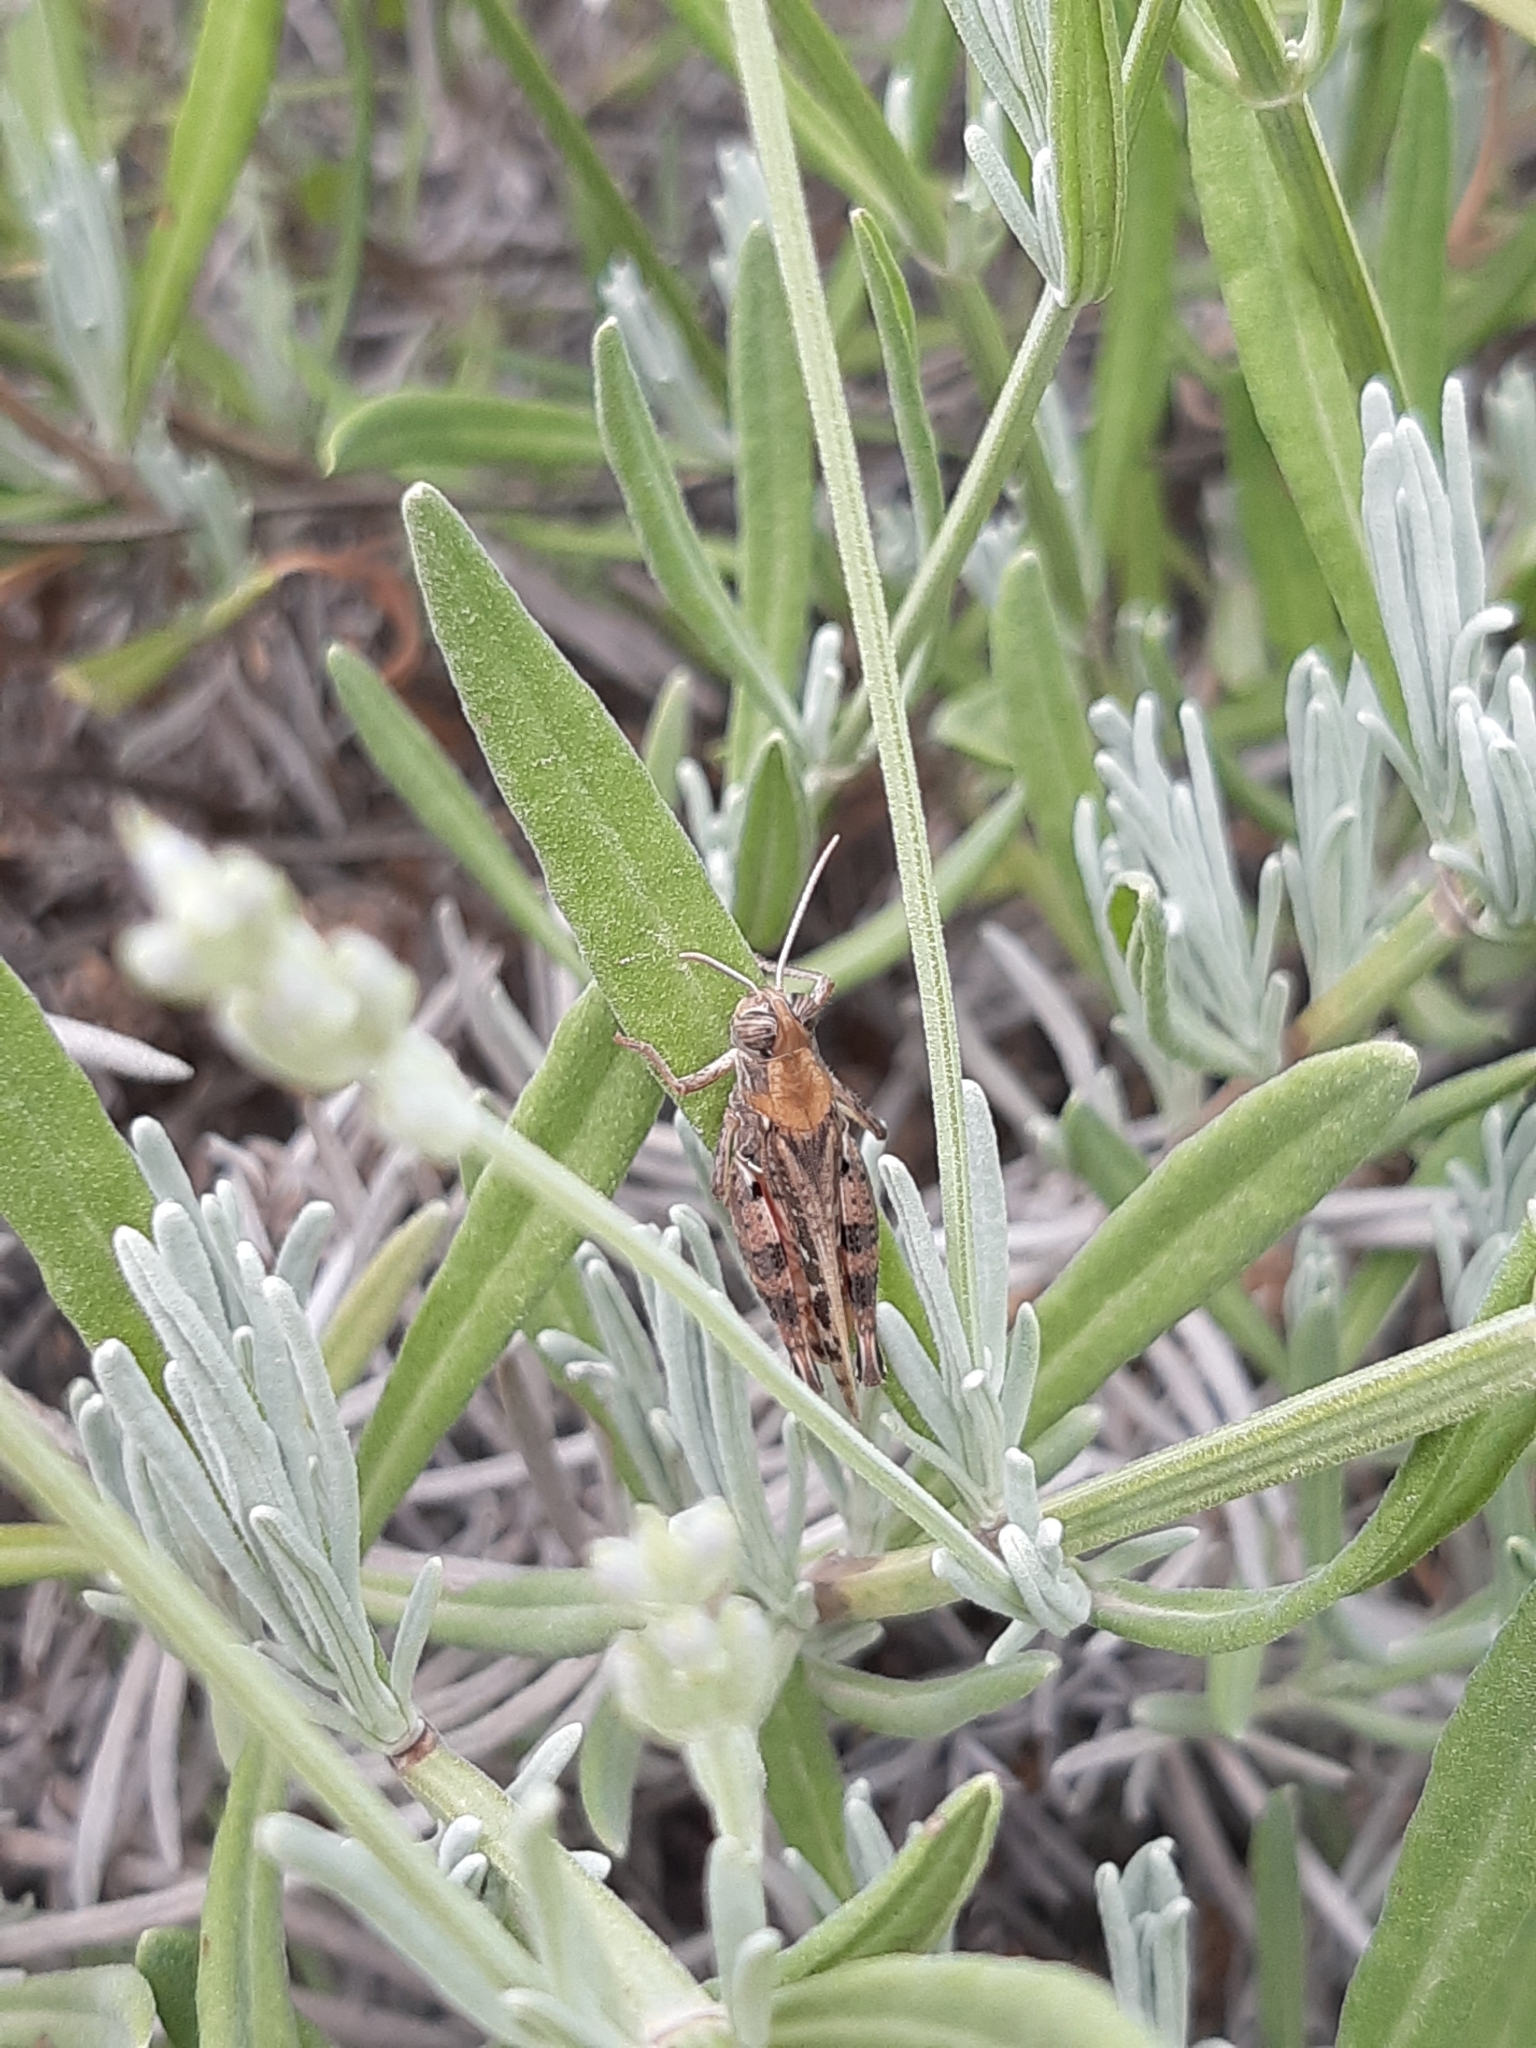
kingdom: Animalia
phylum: Arthropoda
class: Insecta
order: Orthoptera
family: Acrididae
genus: Calliptamus
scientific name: Calliptamus italicus
